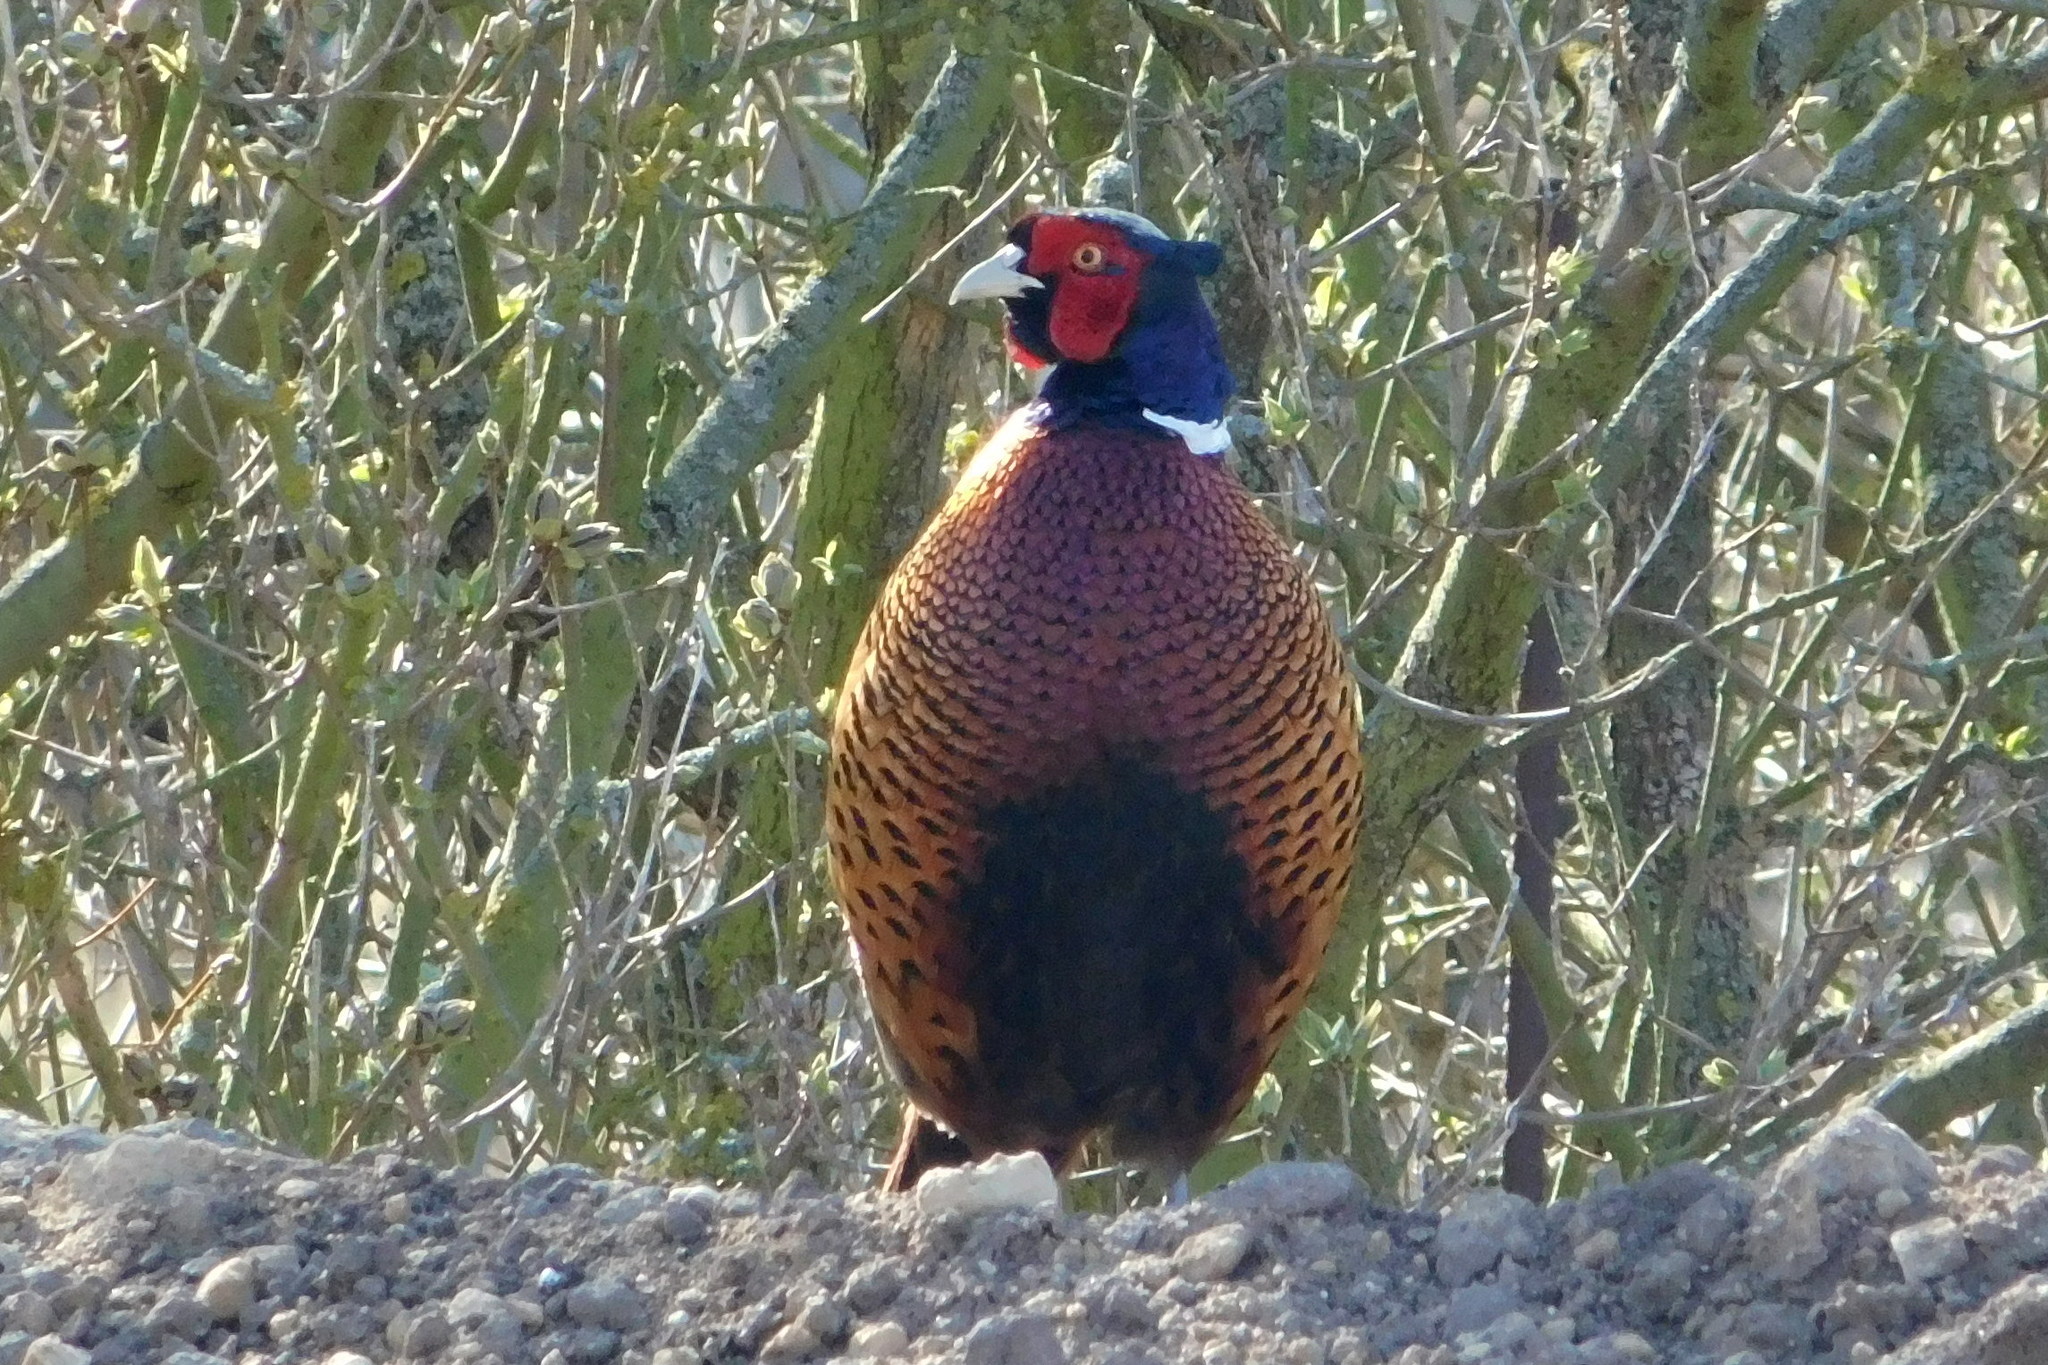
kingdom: Animalia
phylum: Chordata
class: Aves
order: Galliformes
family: Phasianidae
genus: Phasianus
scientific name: Phasianus colchicus
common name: Common pheasant
